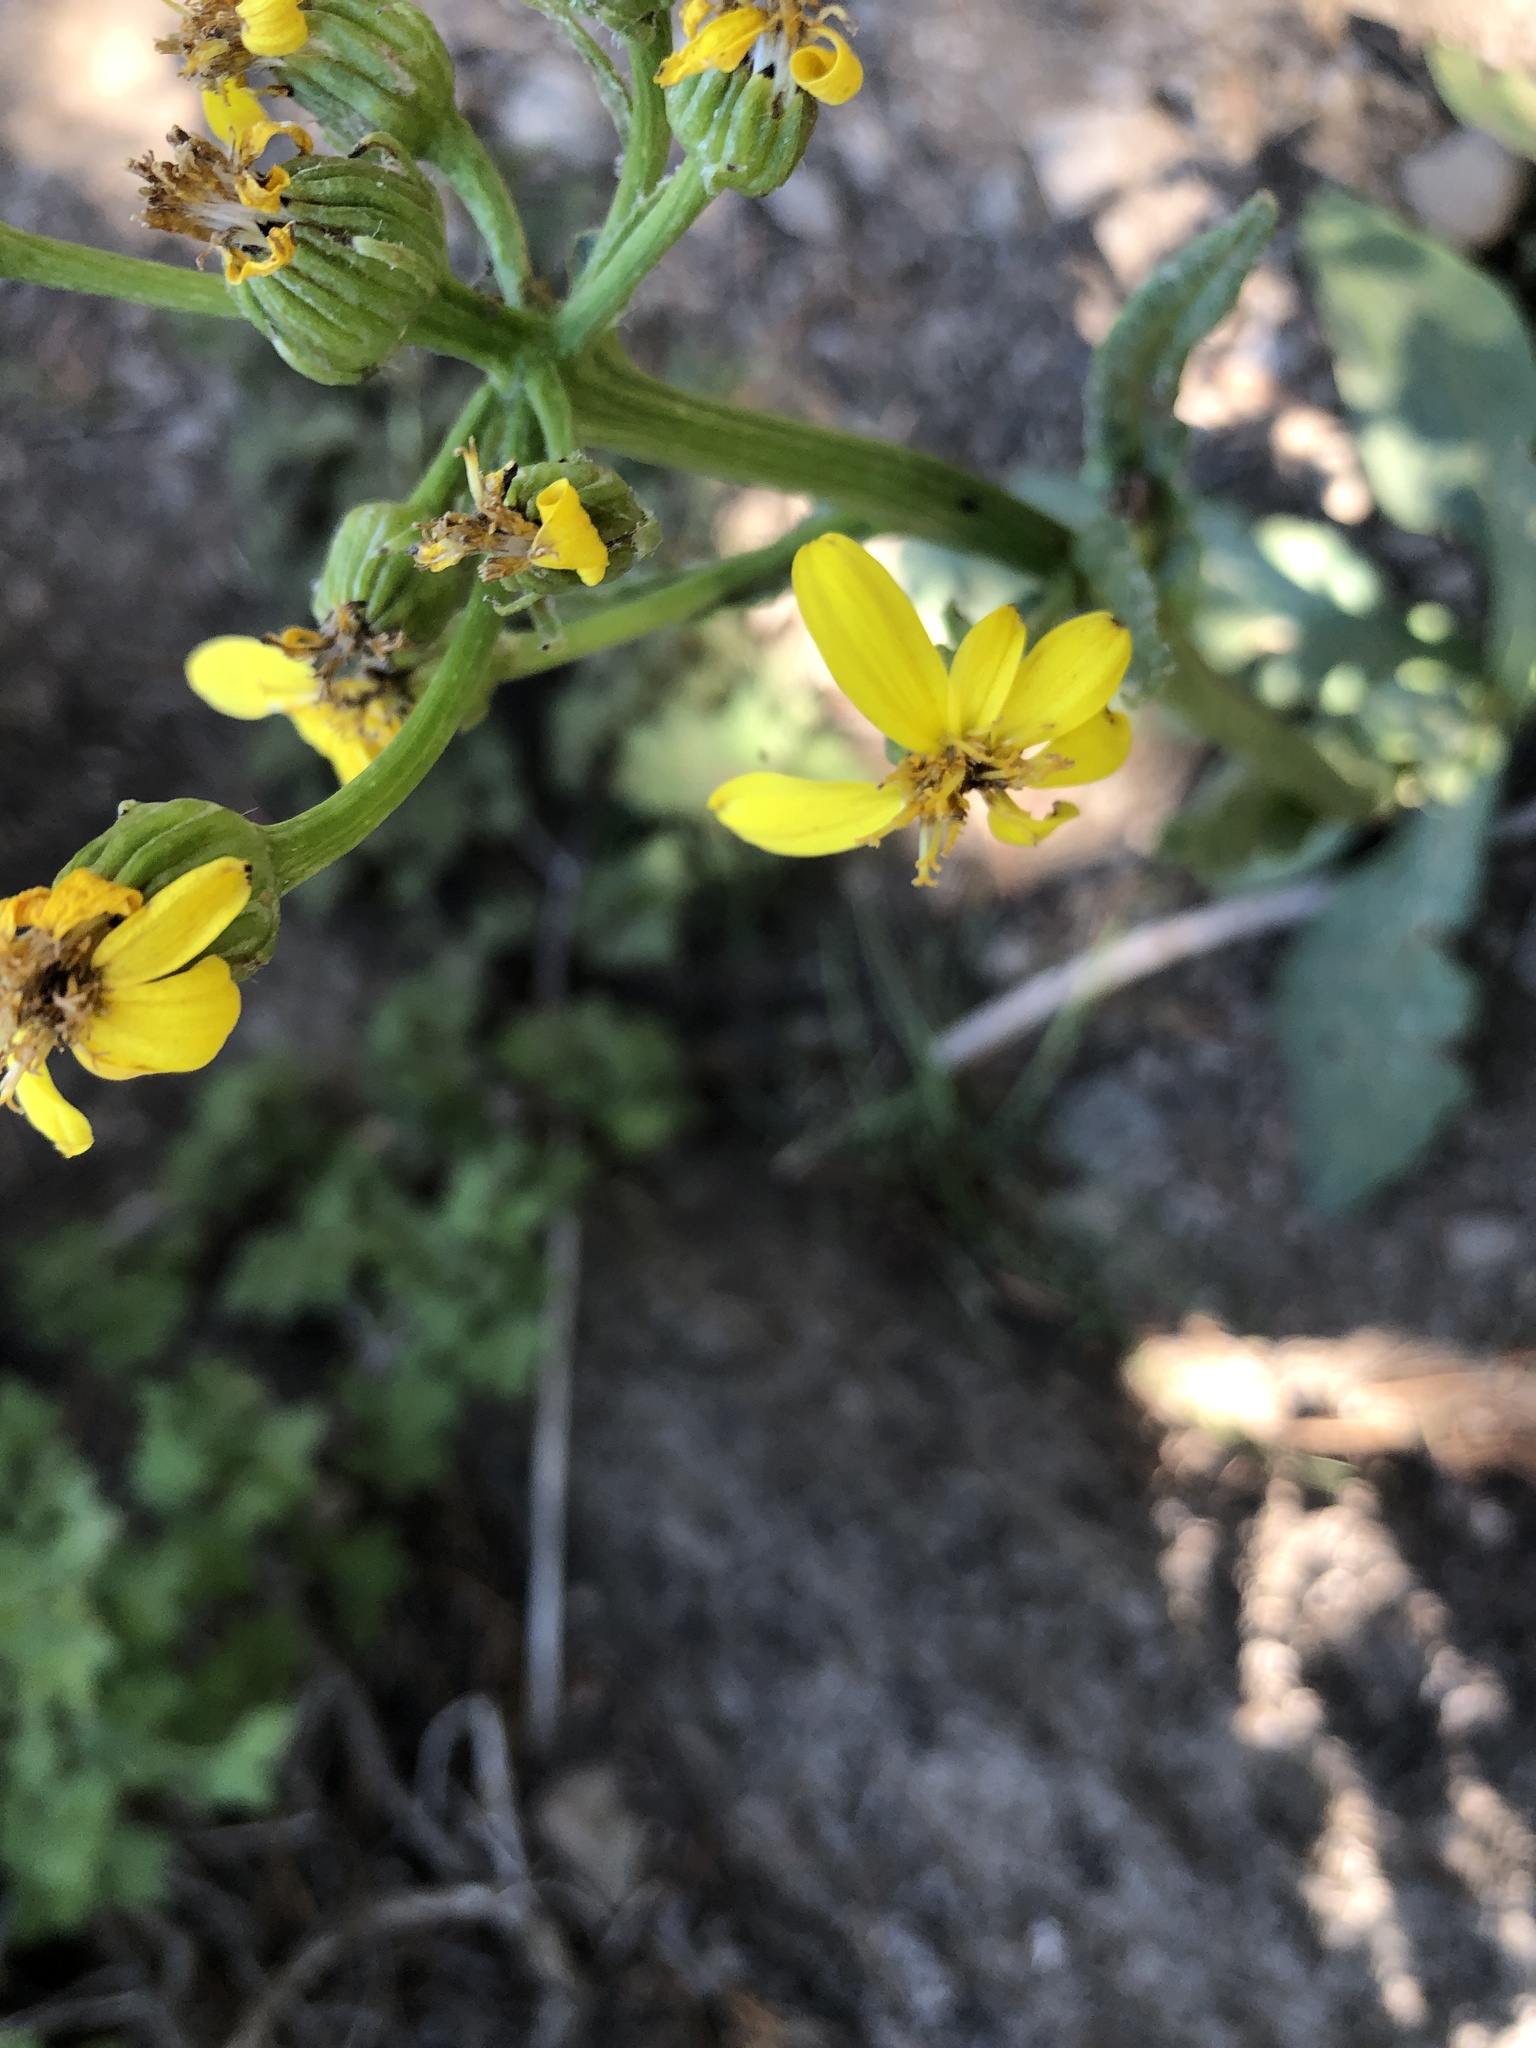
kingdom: Plantae
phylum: Tracheophyta
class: Magnoliopsida
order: Asterales
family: Asteraceae
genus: Senecio
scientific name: Senecio integerrimus
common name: Gaugeplant
